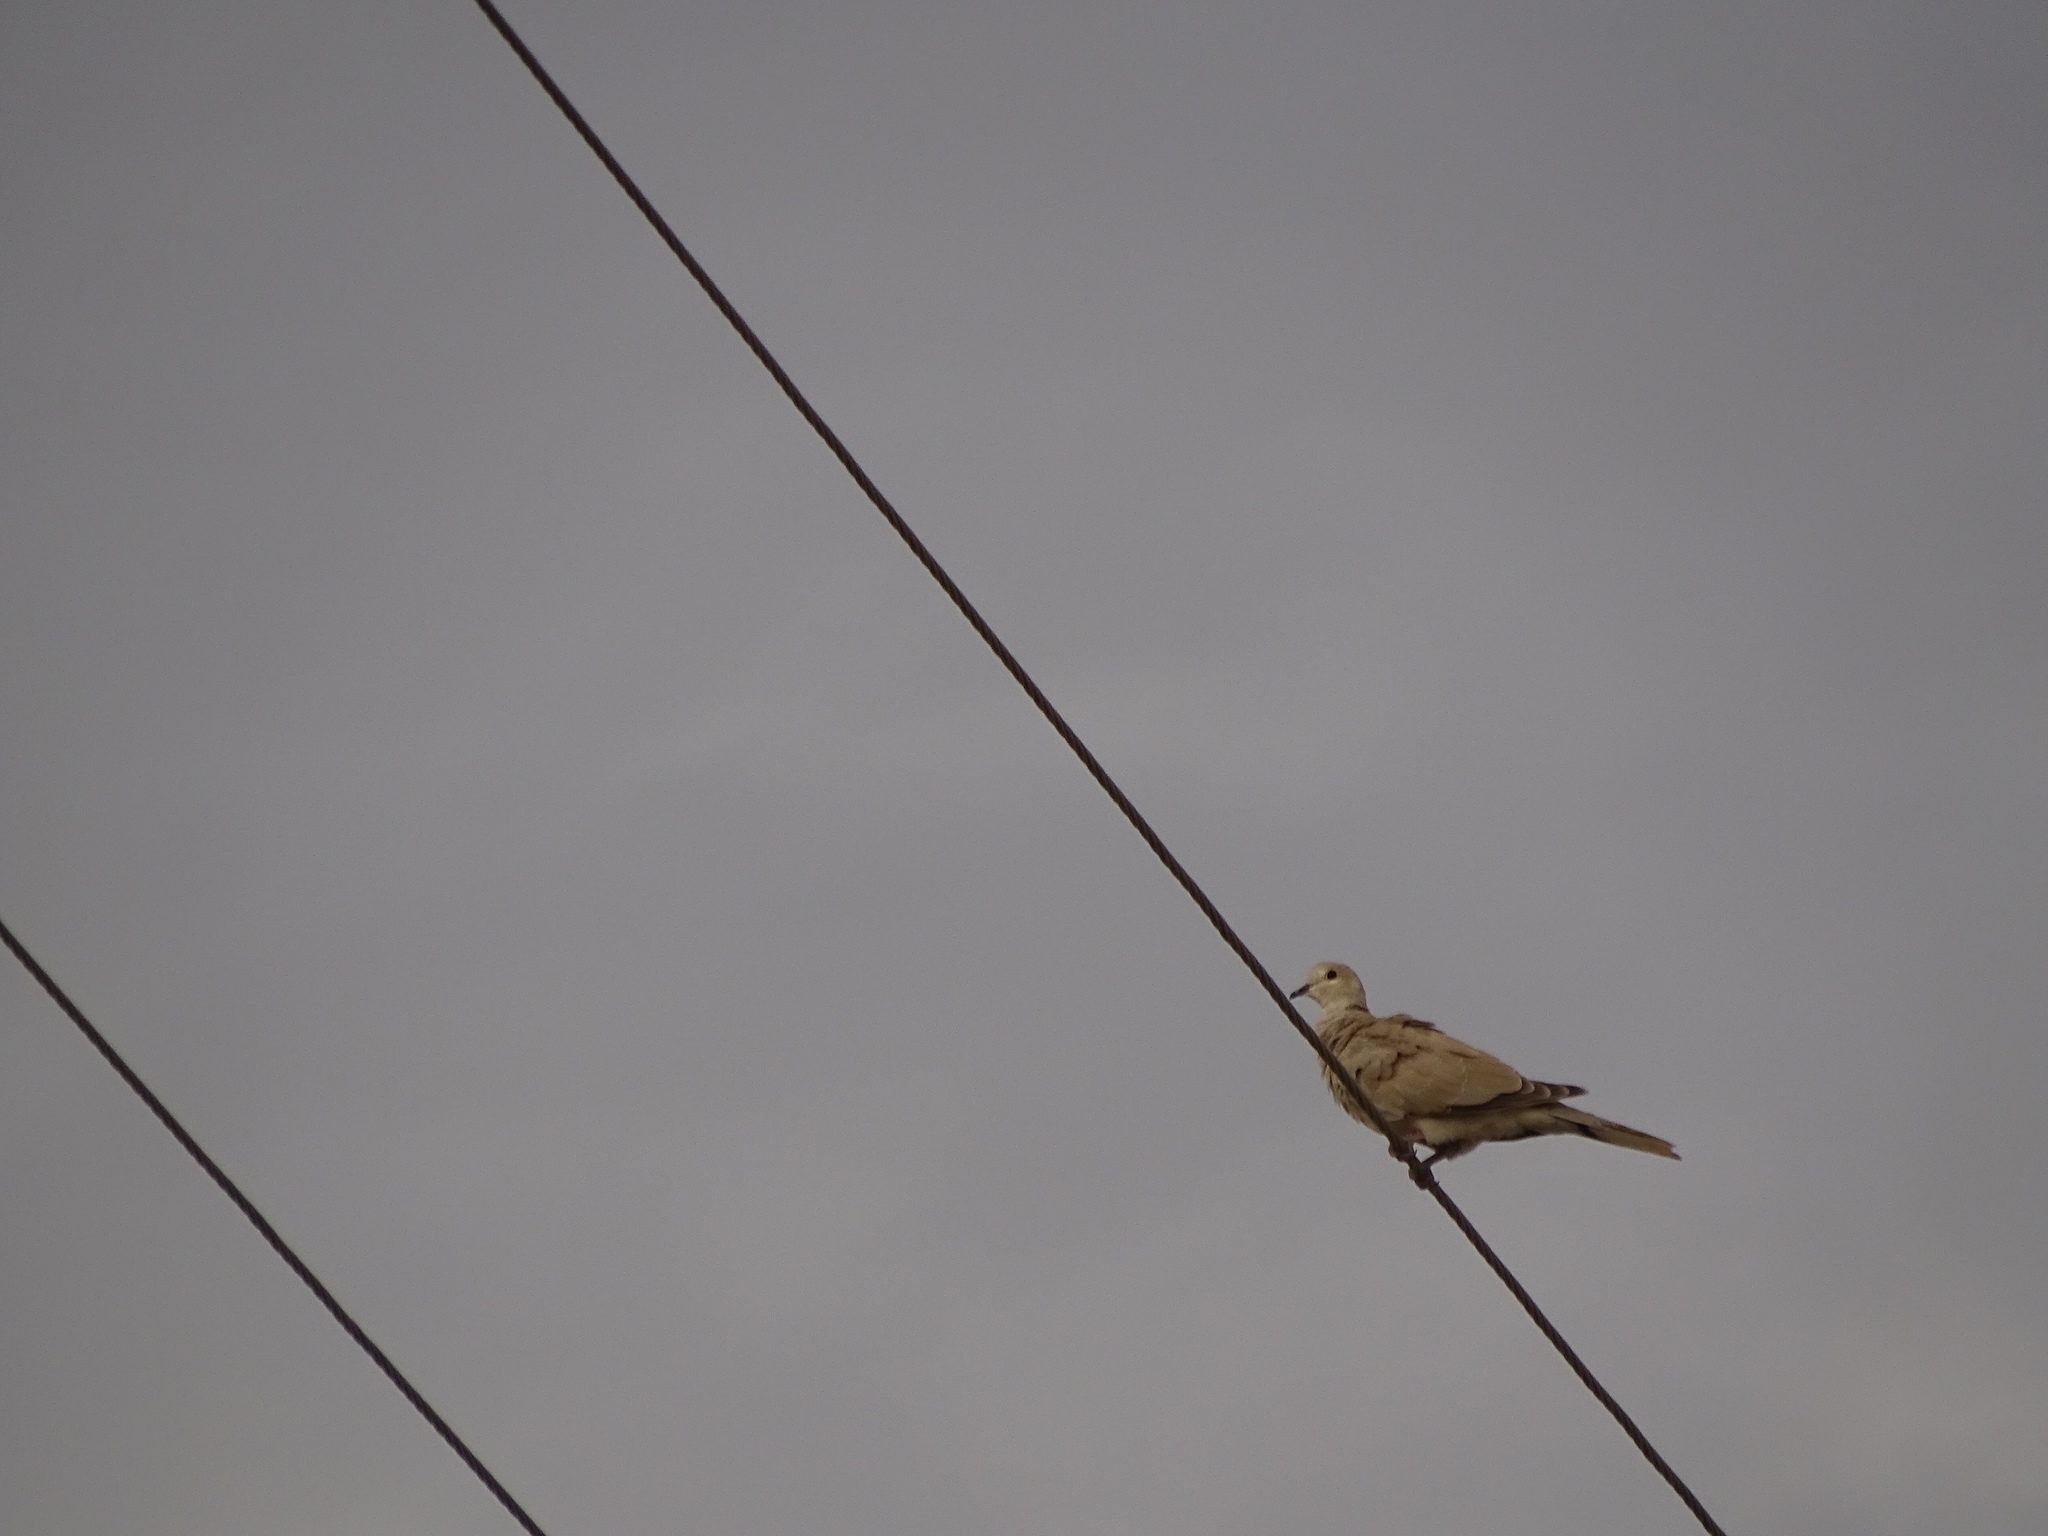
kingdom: Animalia
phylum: Chordata
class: Aves
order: Columbiformes
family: Columbidae
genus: Streptopelia
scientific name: Streptopelia decaocto
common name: Eurasian collared dove
